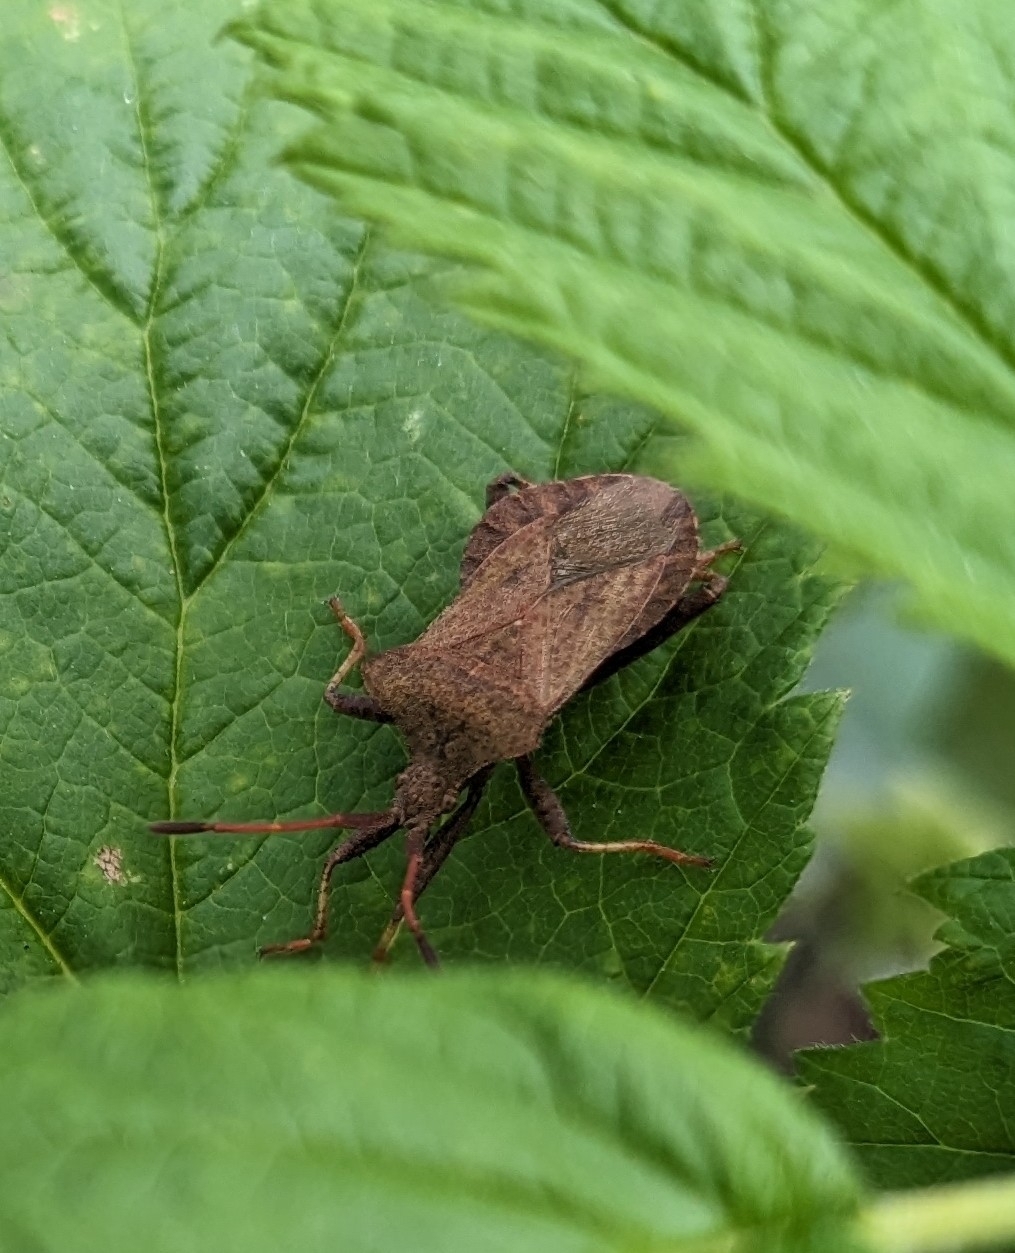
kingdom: Animalia
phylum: Arthropoda
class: Insecta
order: Hemiptera
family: Coreidae
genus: Coreus
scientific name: Coreus marginatus
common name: Dock bug
